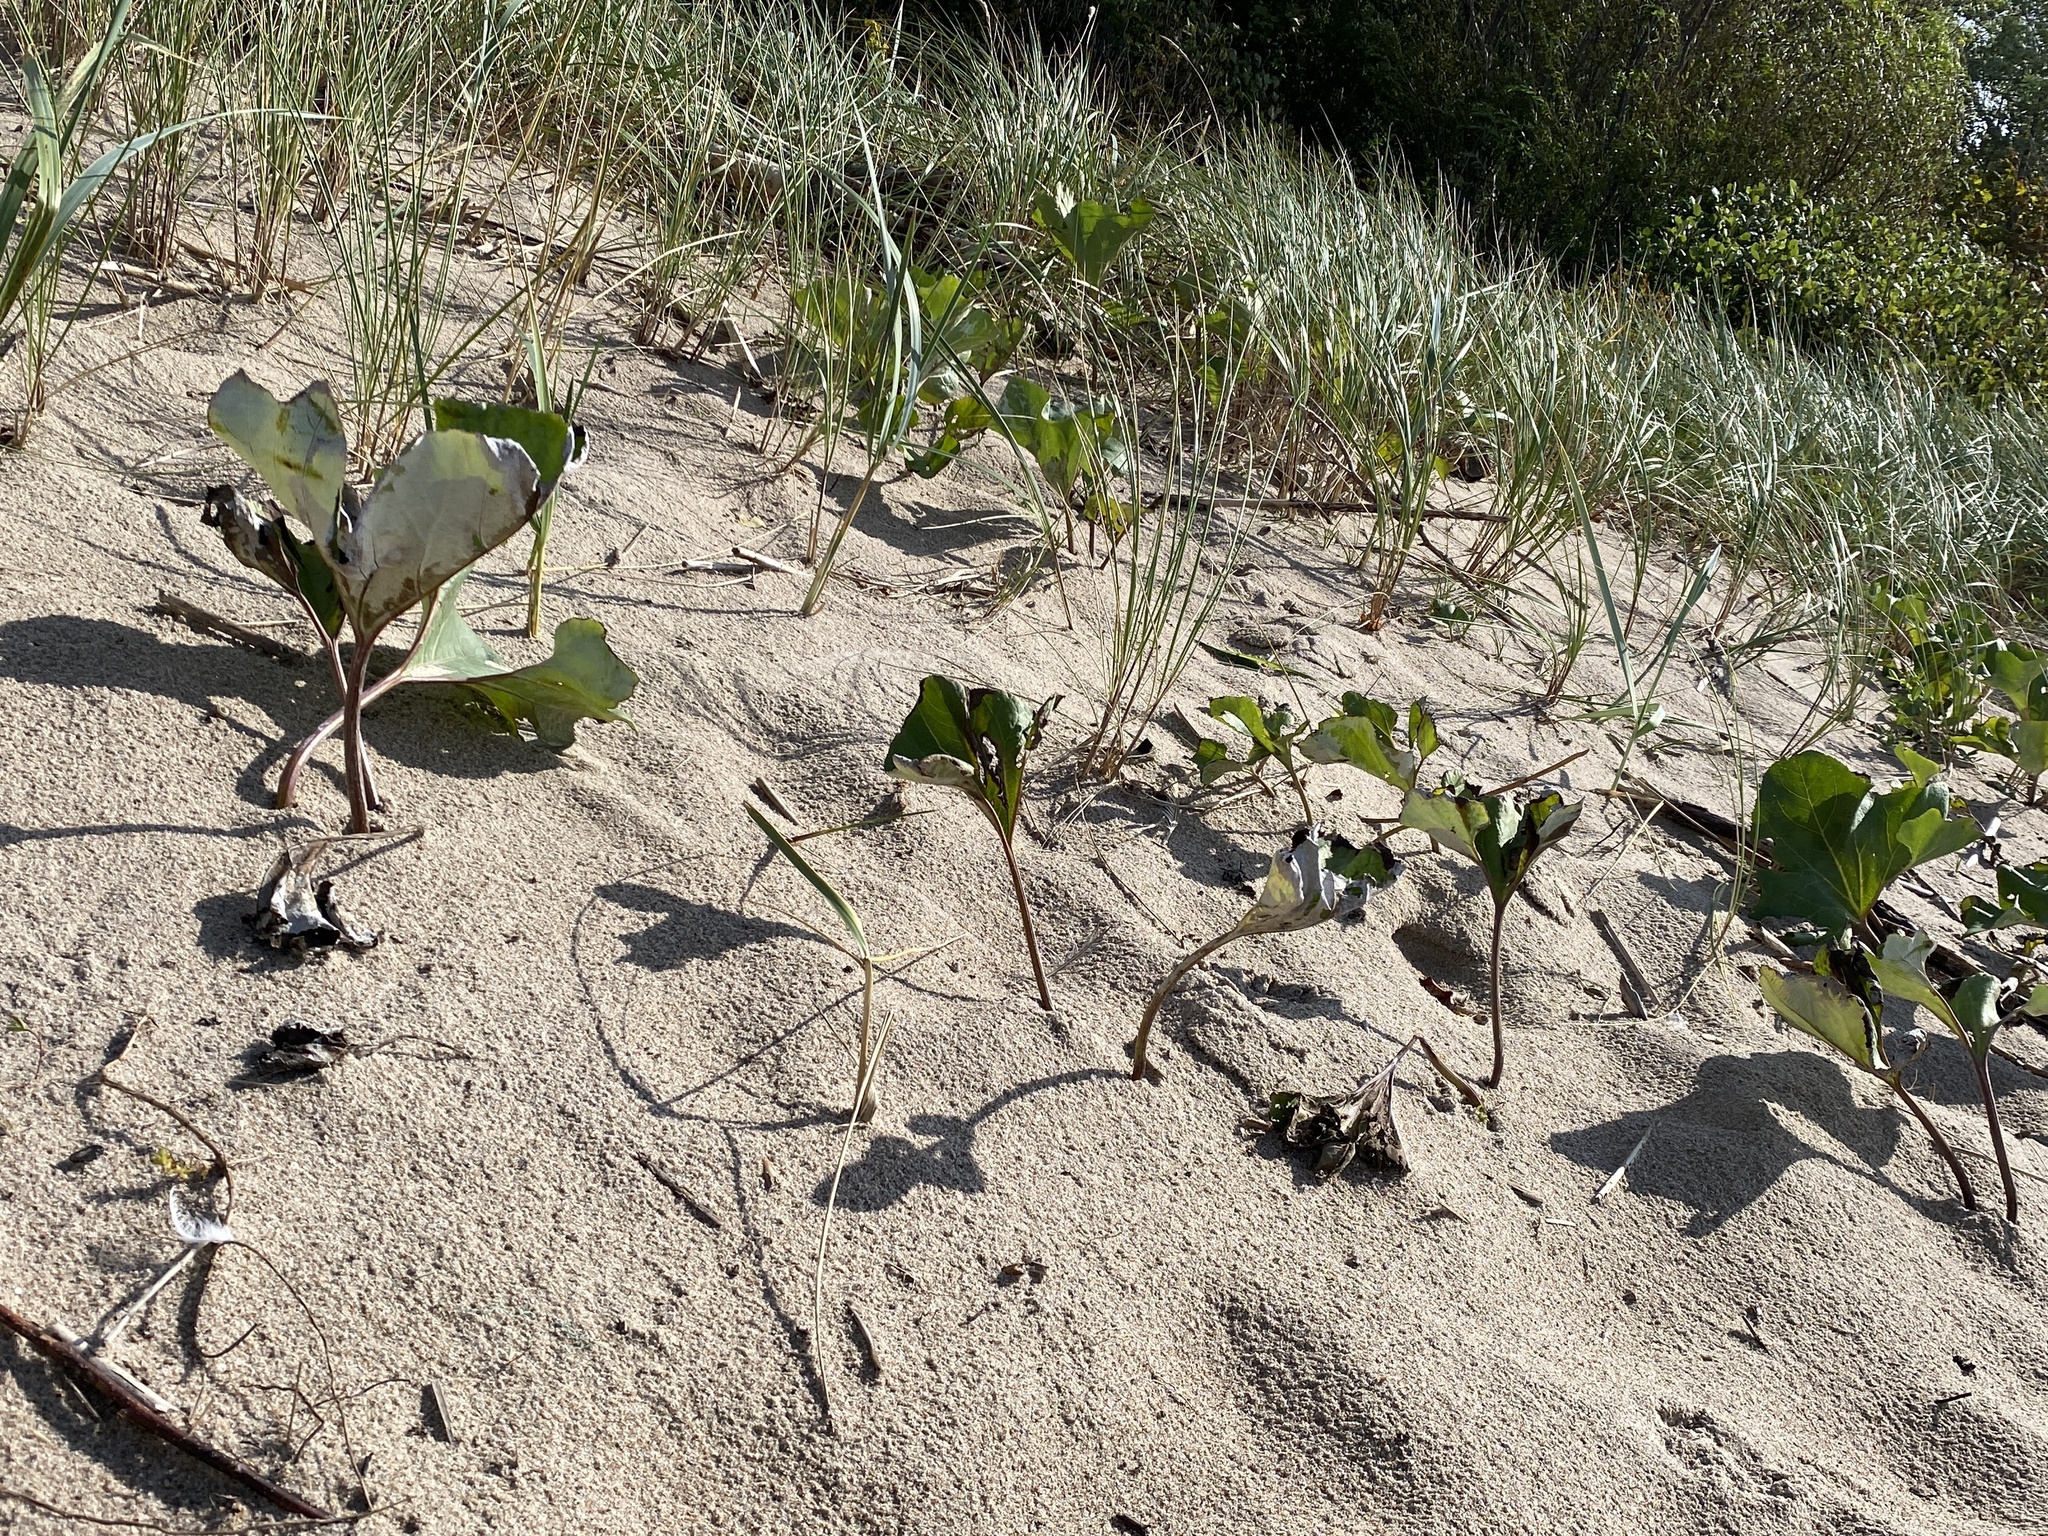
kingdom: Plantae
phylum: Tracheophyta
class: Magnoliopsida
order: Asterales
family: Asteraceae
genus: Petasites
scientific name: Petasites spurius
